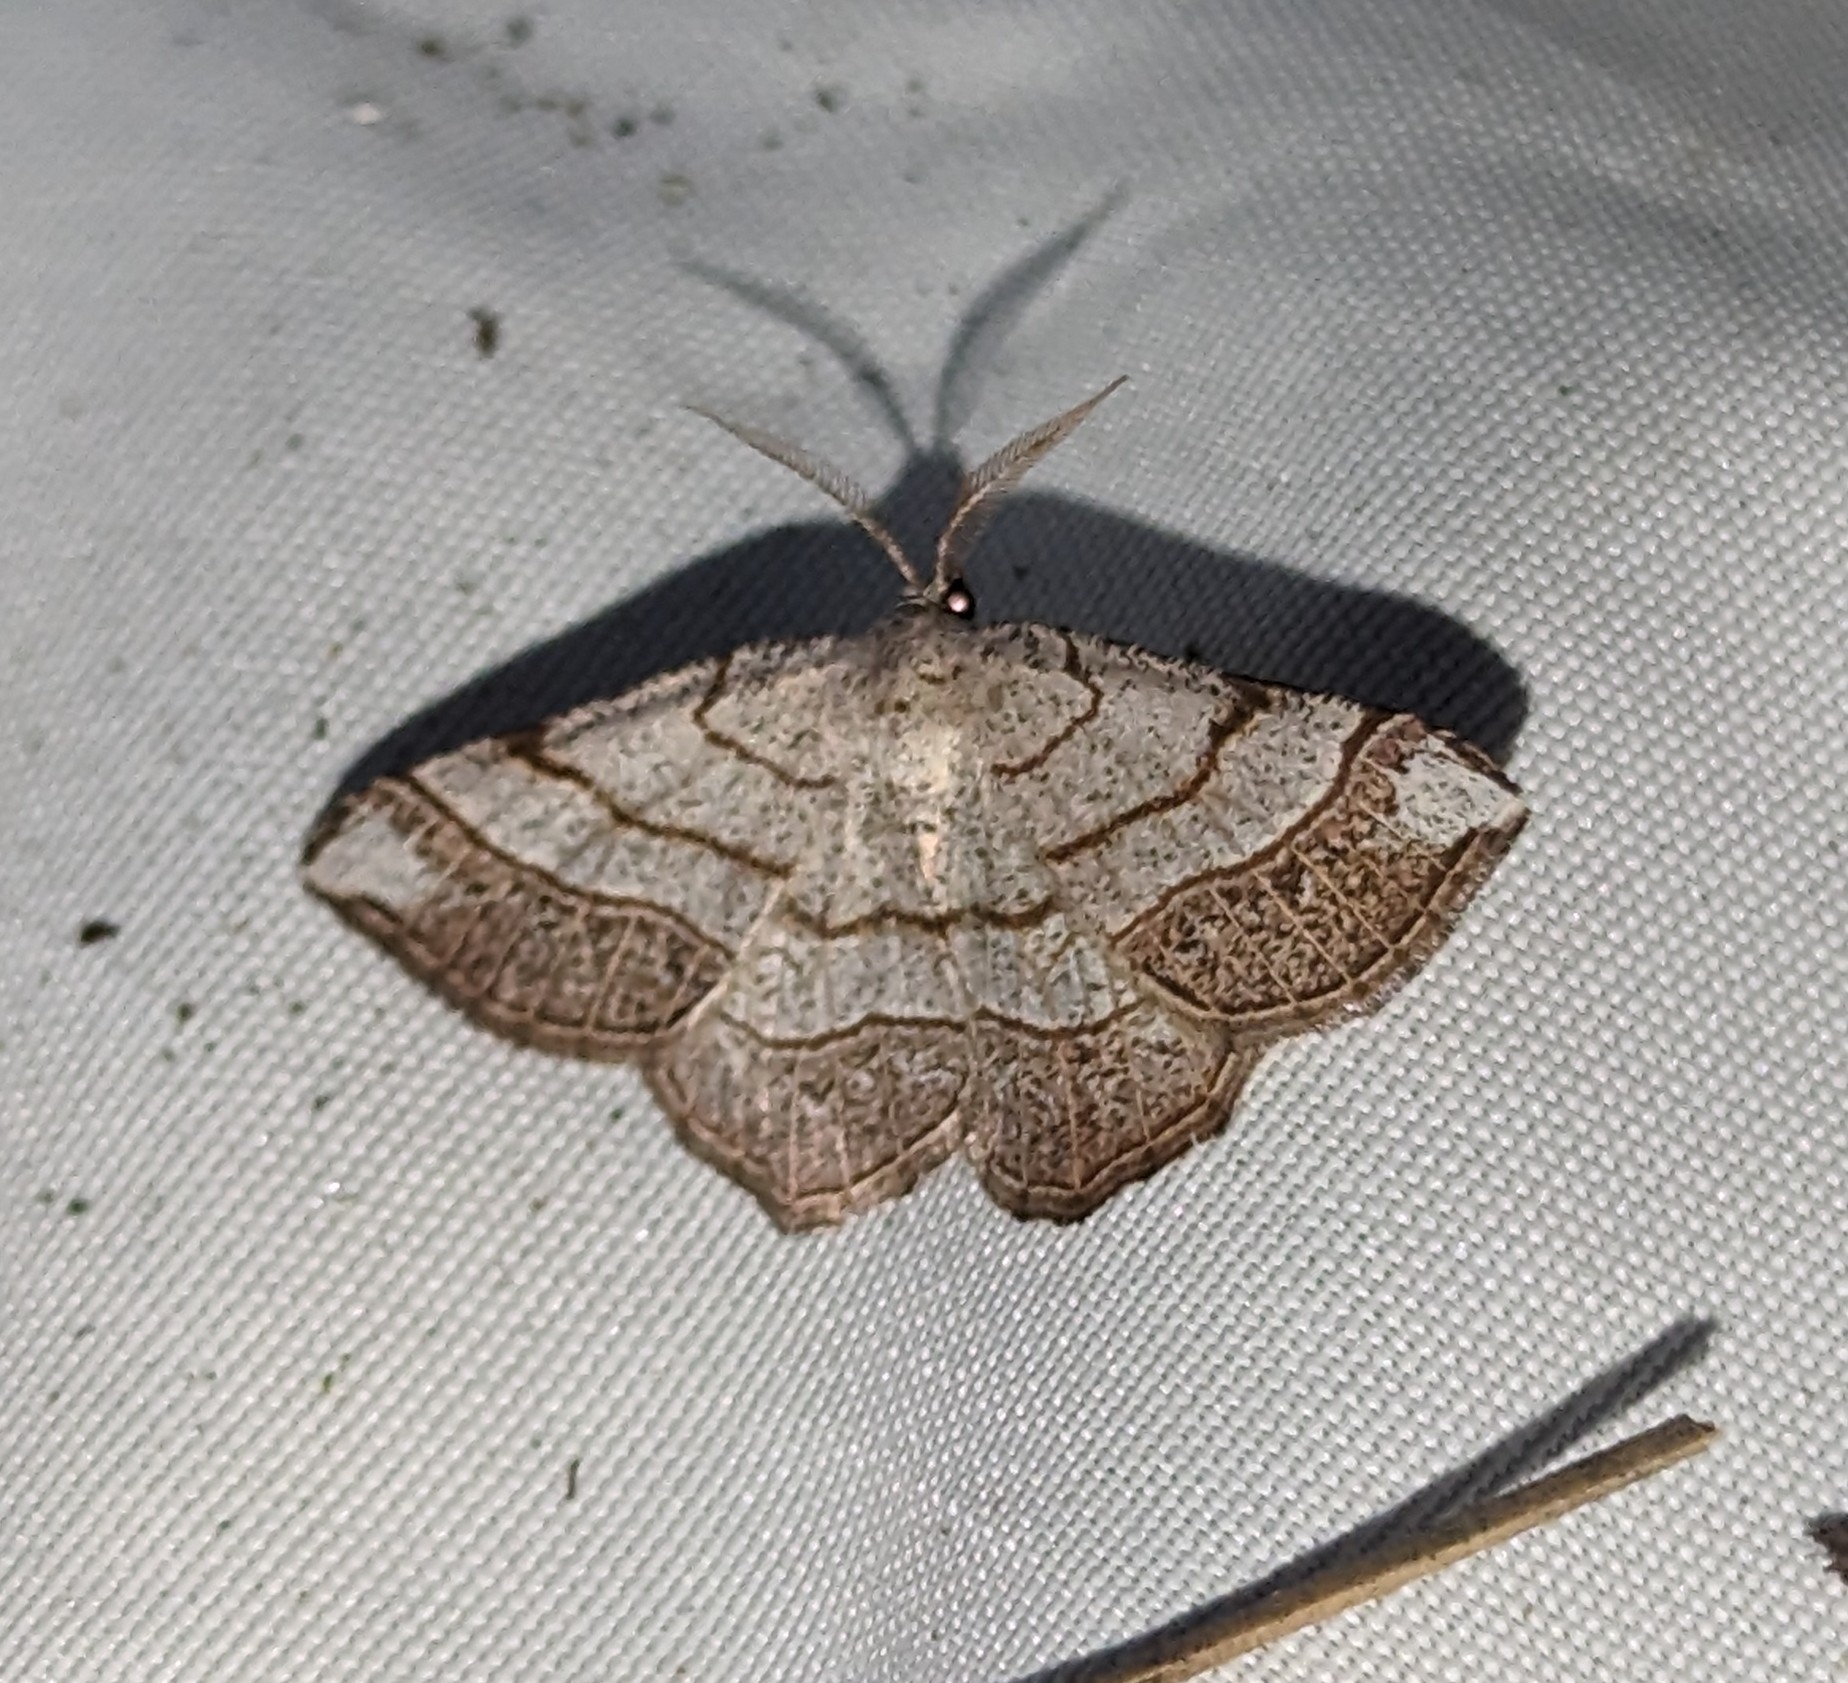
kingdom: Animalia
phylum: Arthropoda
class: Insecta
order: Lepidoptera
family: Geometridae
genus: Eumacaria
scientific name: Eumacaria madopata
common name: Brown-bordered geometer
